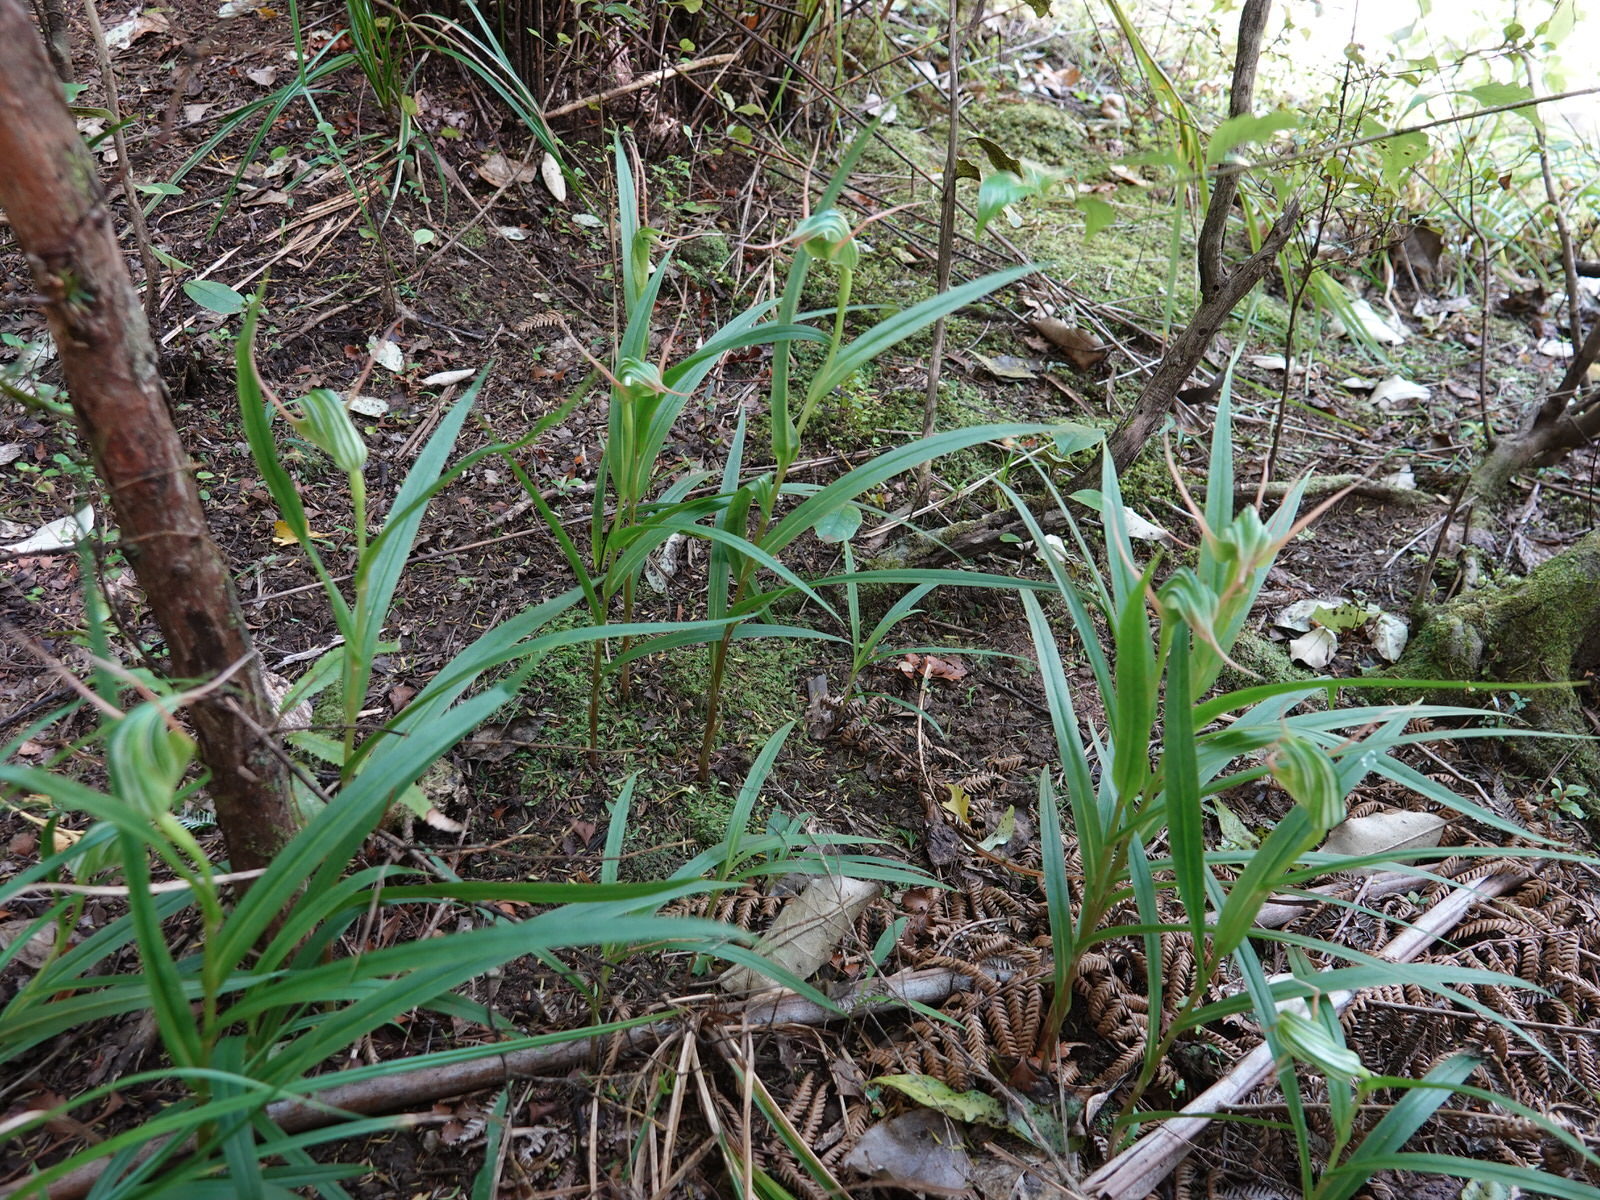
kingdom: Plantae
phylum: Tracheophyta
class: Liliopsida
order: Asparagales
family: Orchidaceae
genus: Pterostylis
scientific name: Pterostylis banksii
